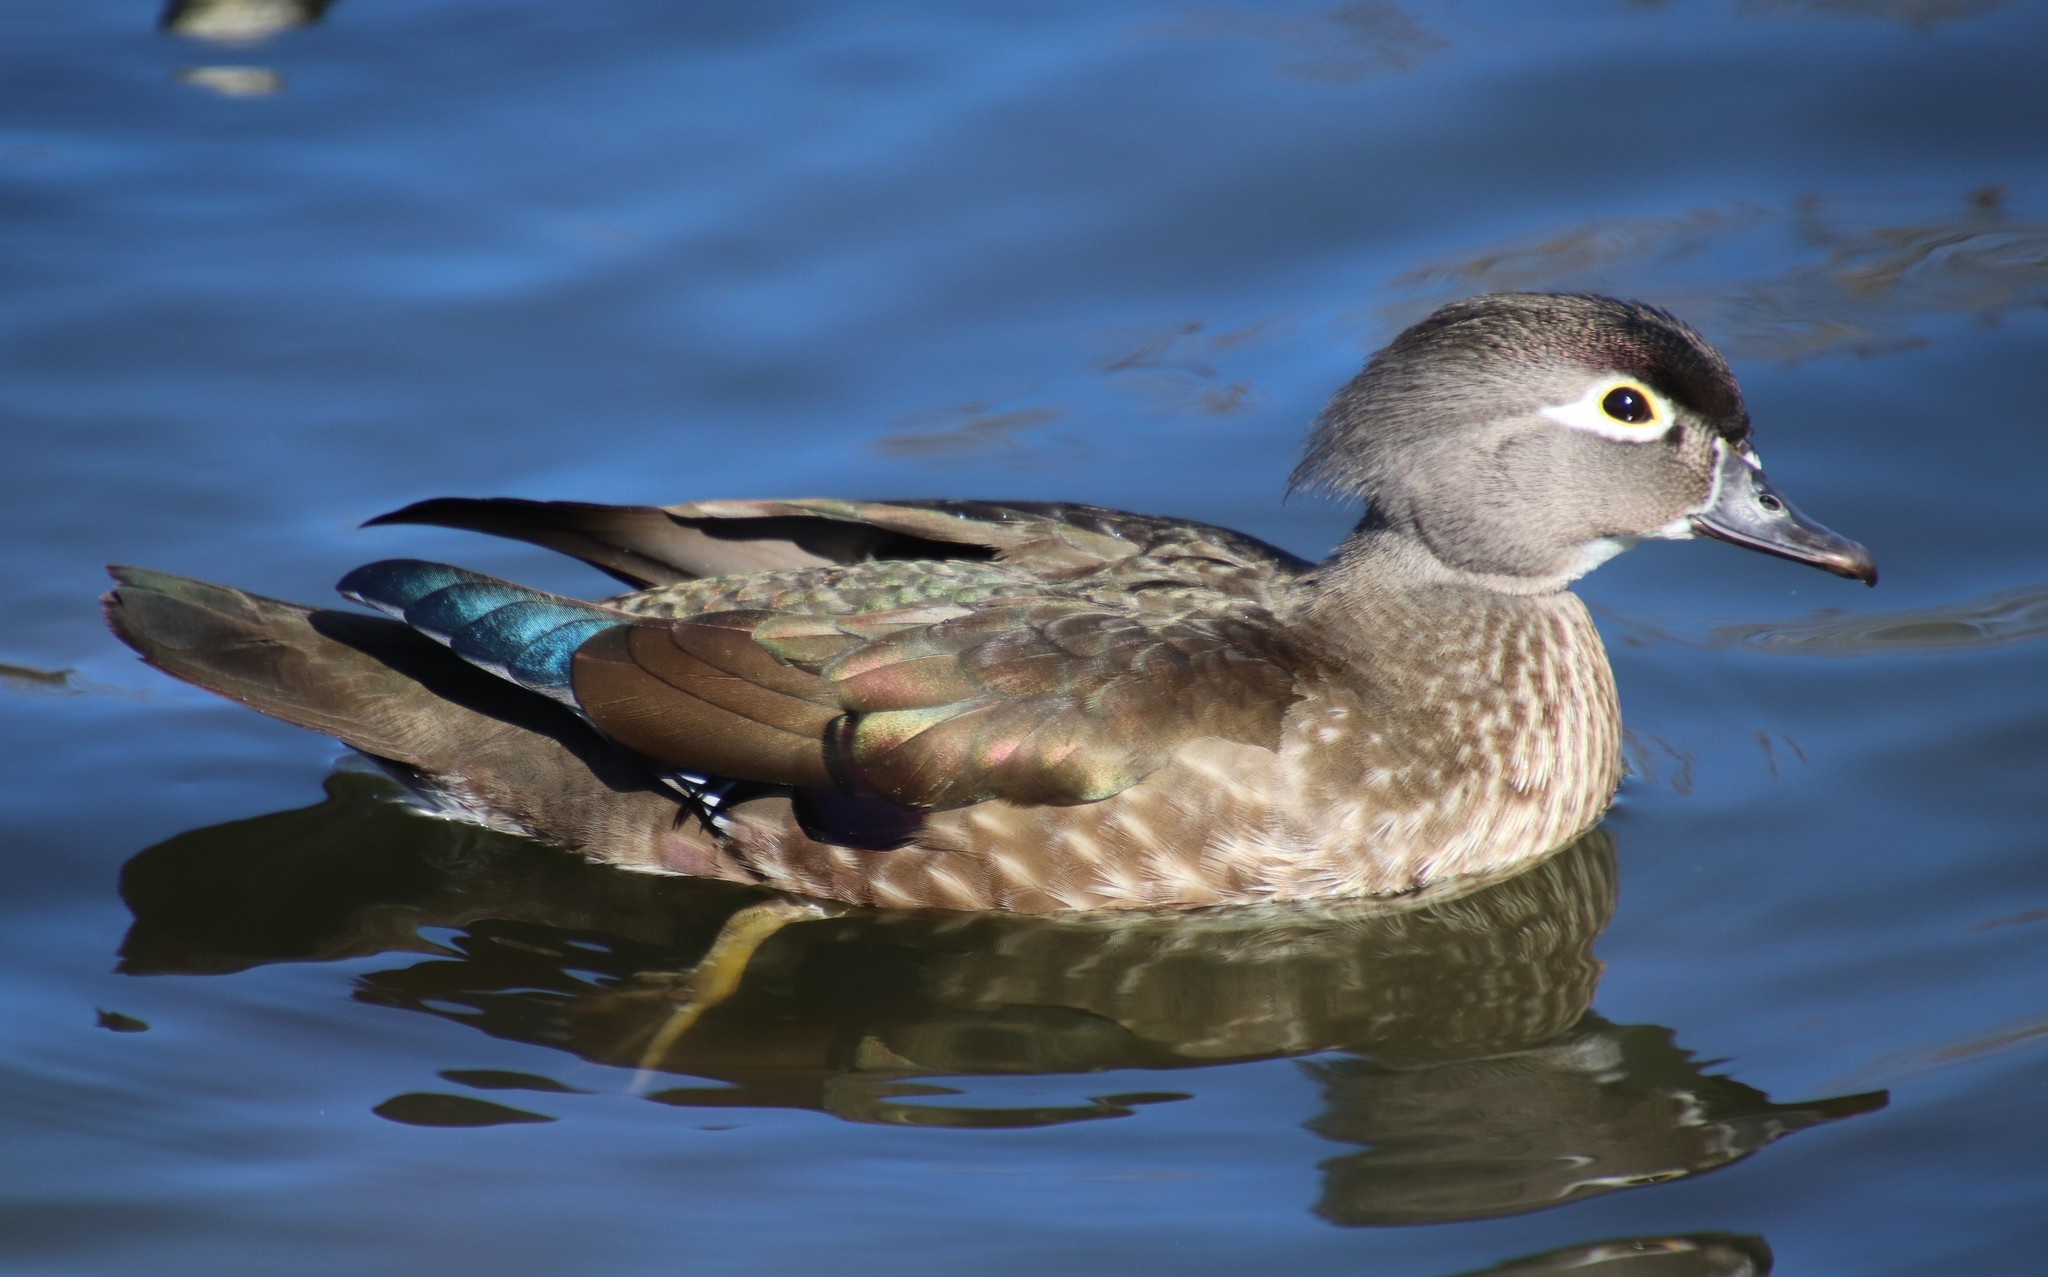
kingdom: Animalia
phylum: Chordata
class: Aves
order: Anseriformes
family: Anatidae
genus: Aix
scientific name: Aix sponsa
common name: Wood duck
